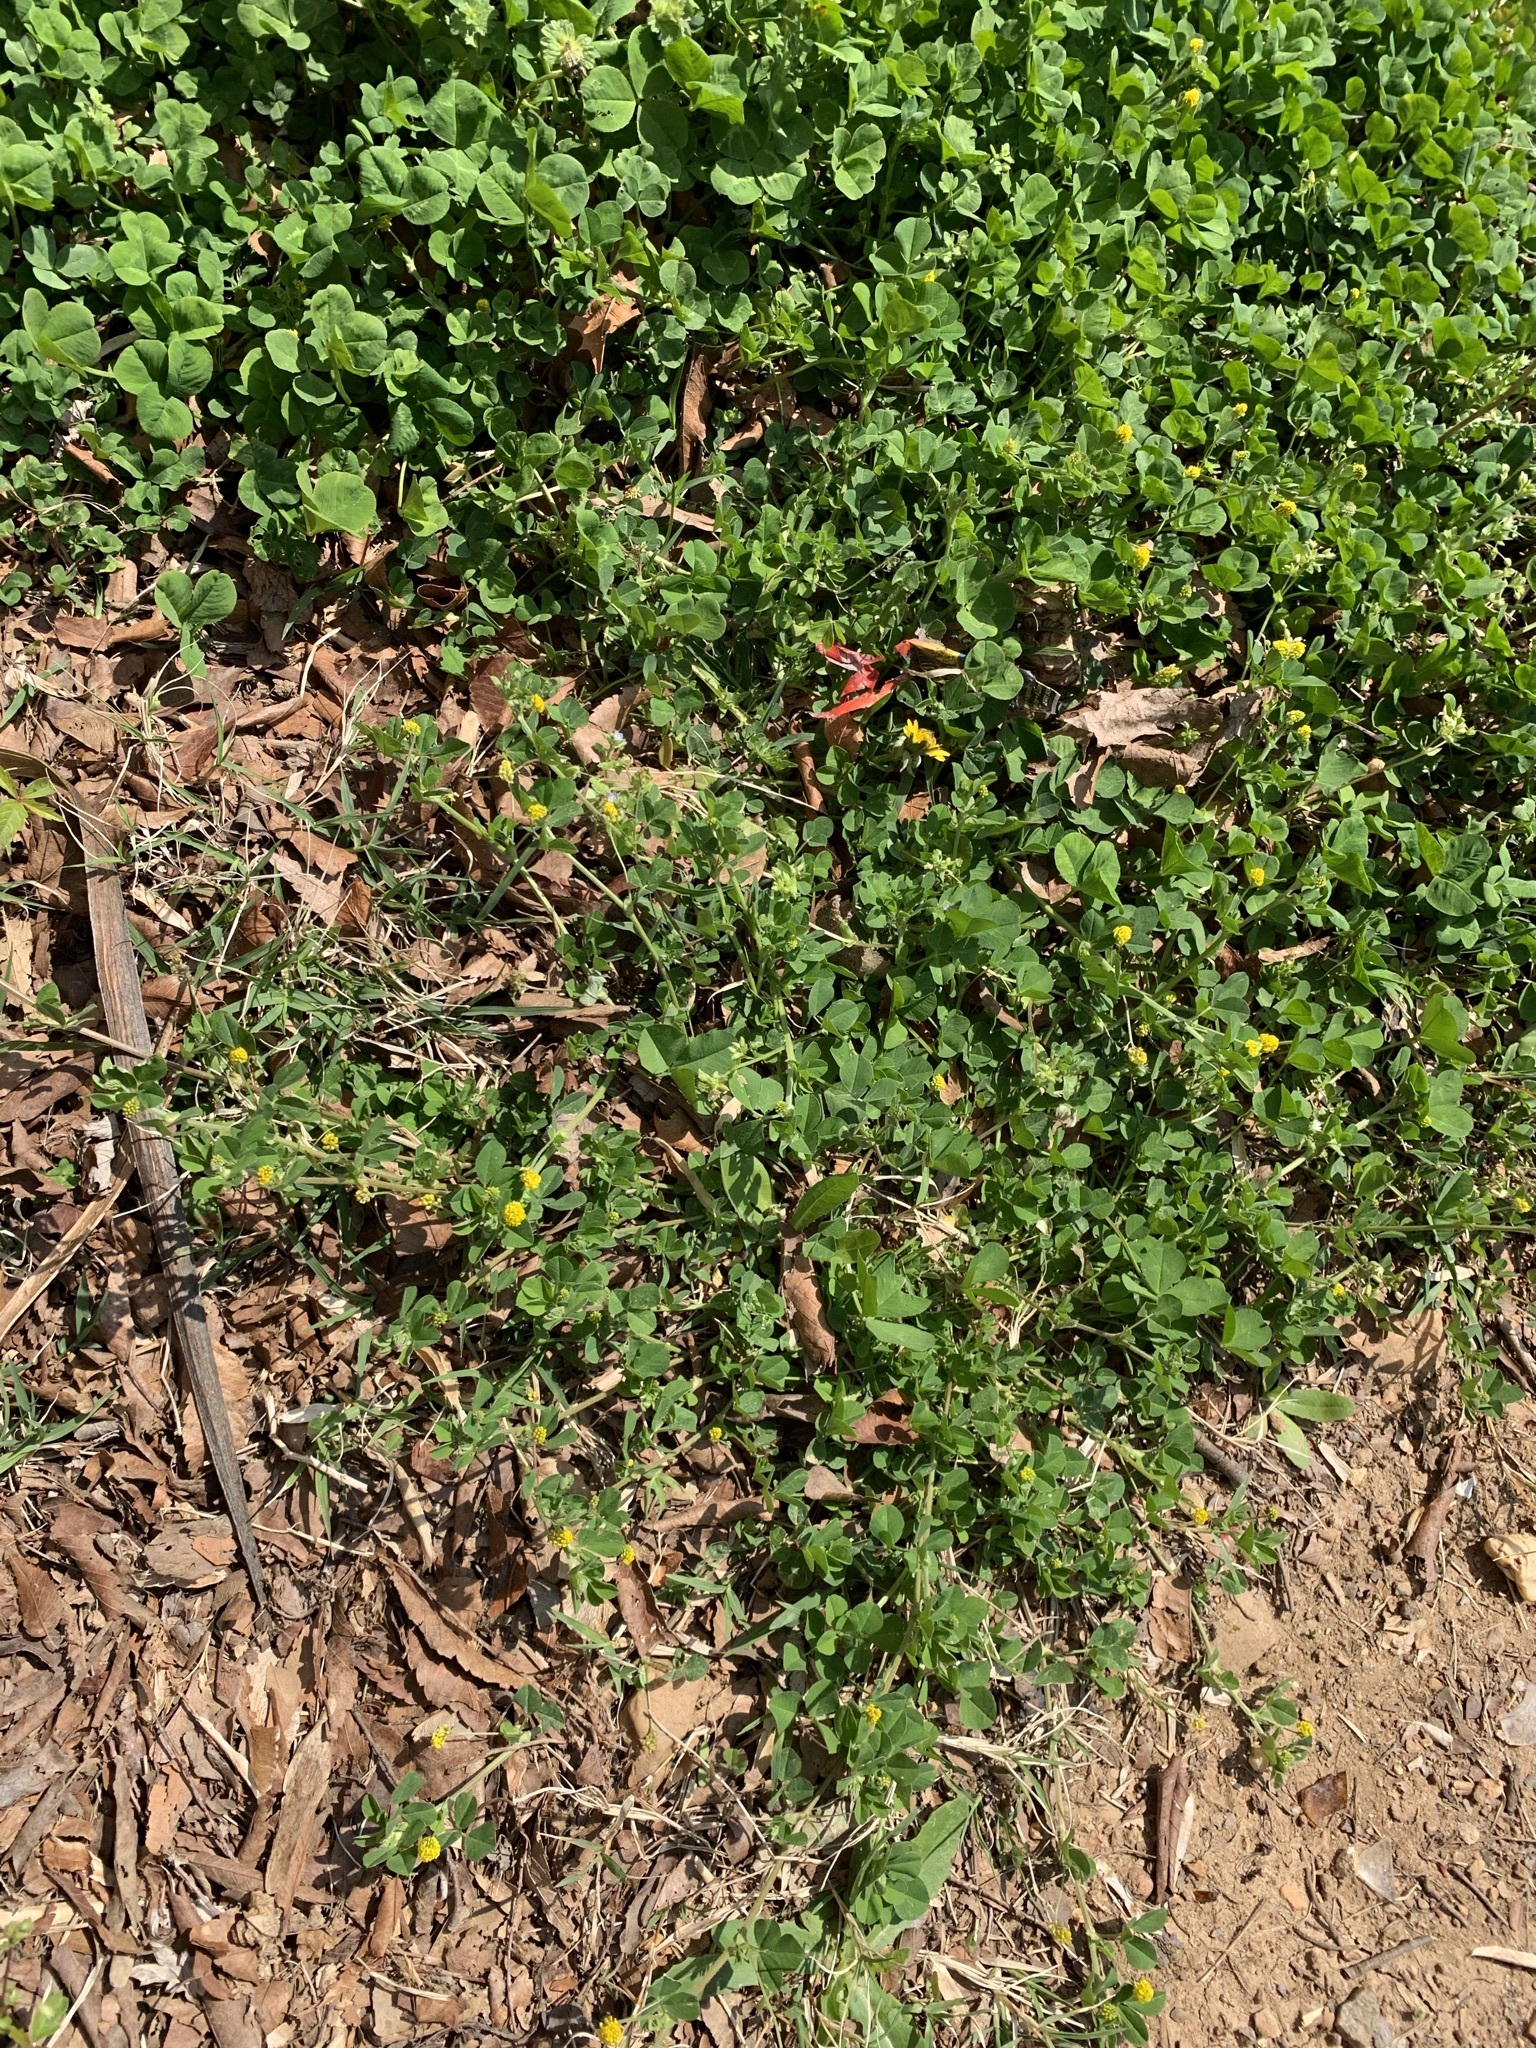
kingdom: Plantae
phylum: Tracheophyta
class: Magnoliopsida
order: Fabales
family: Fabaceae
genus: Medicago
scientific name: Medicago lupulina
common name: Black medick
